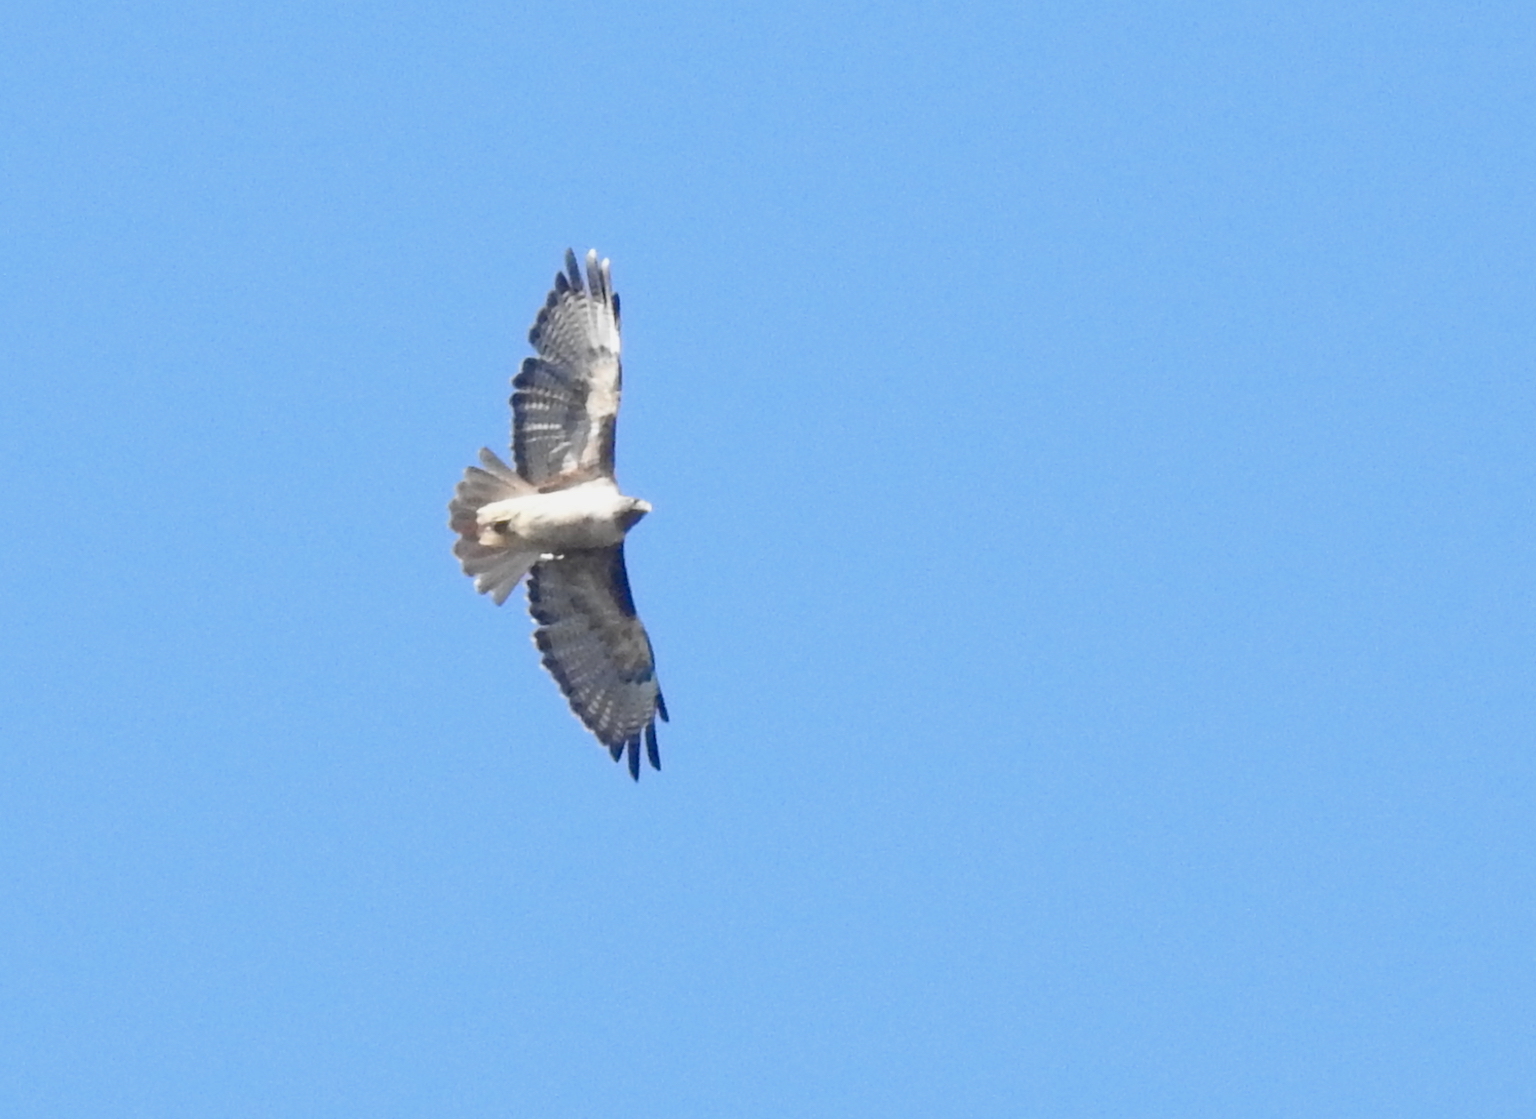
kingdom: Animalia
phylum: Chordata
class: Aves
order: Accipitriformes
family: Accipitridae
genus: Buteo
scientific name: Buteo jamaicensis
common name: Red-tailed hawk
